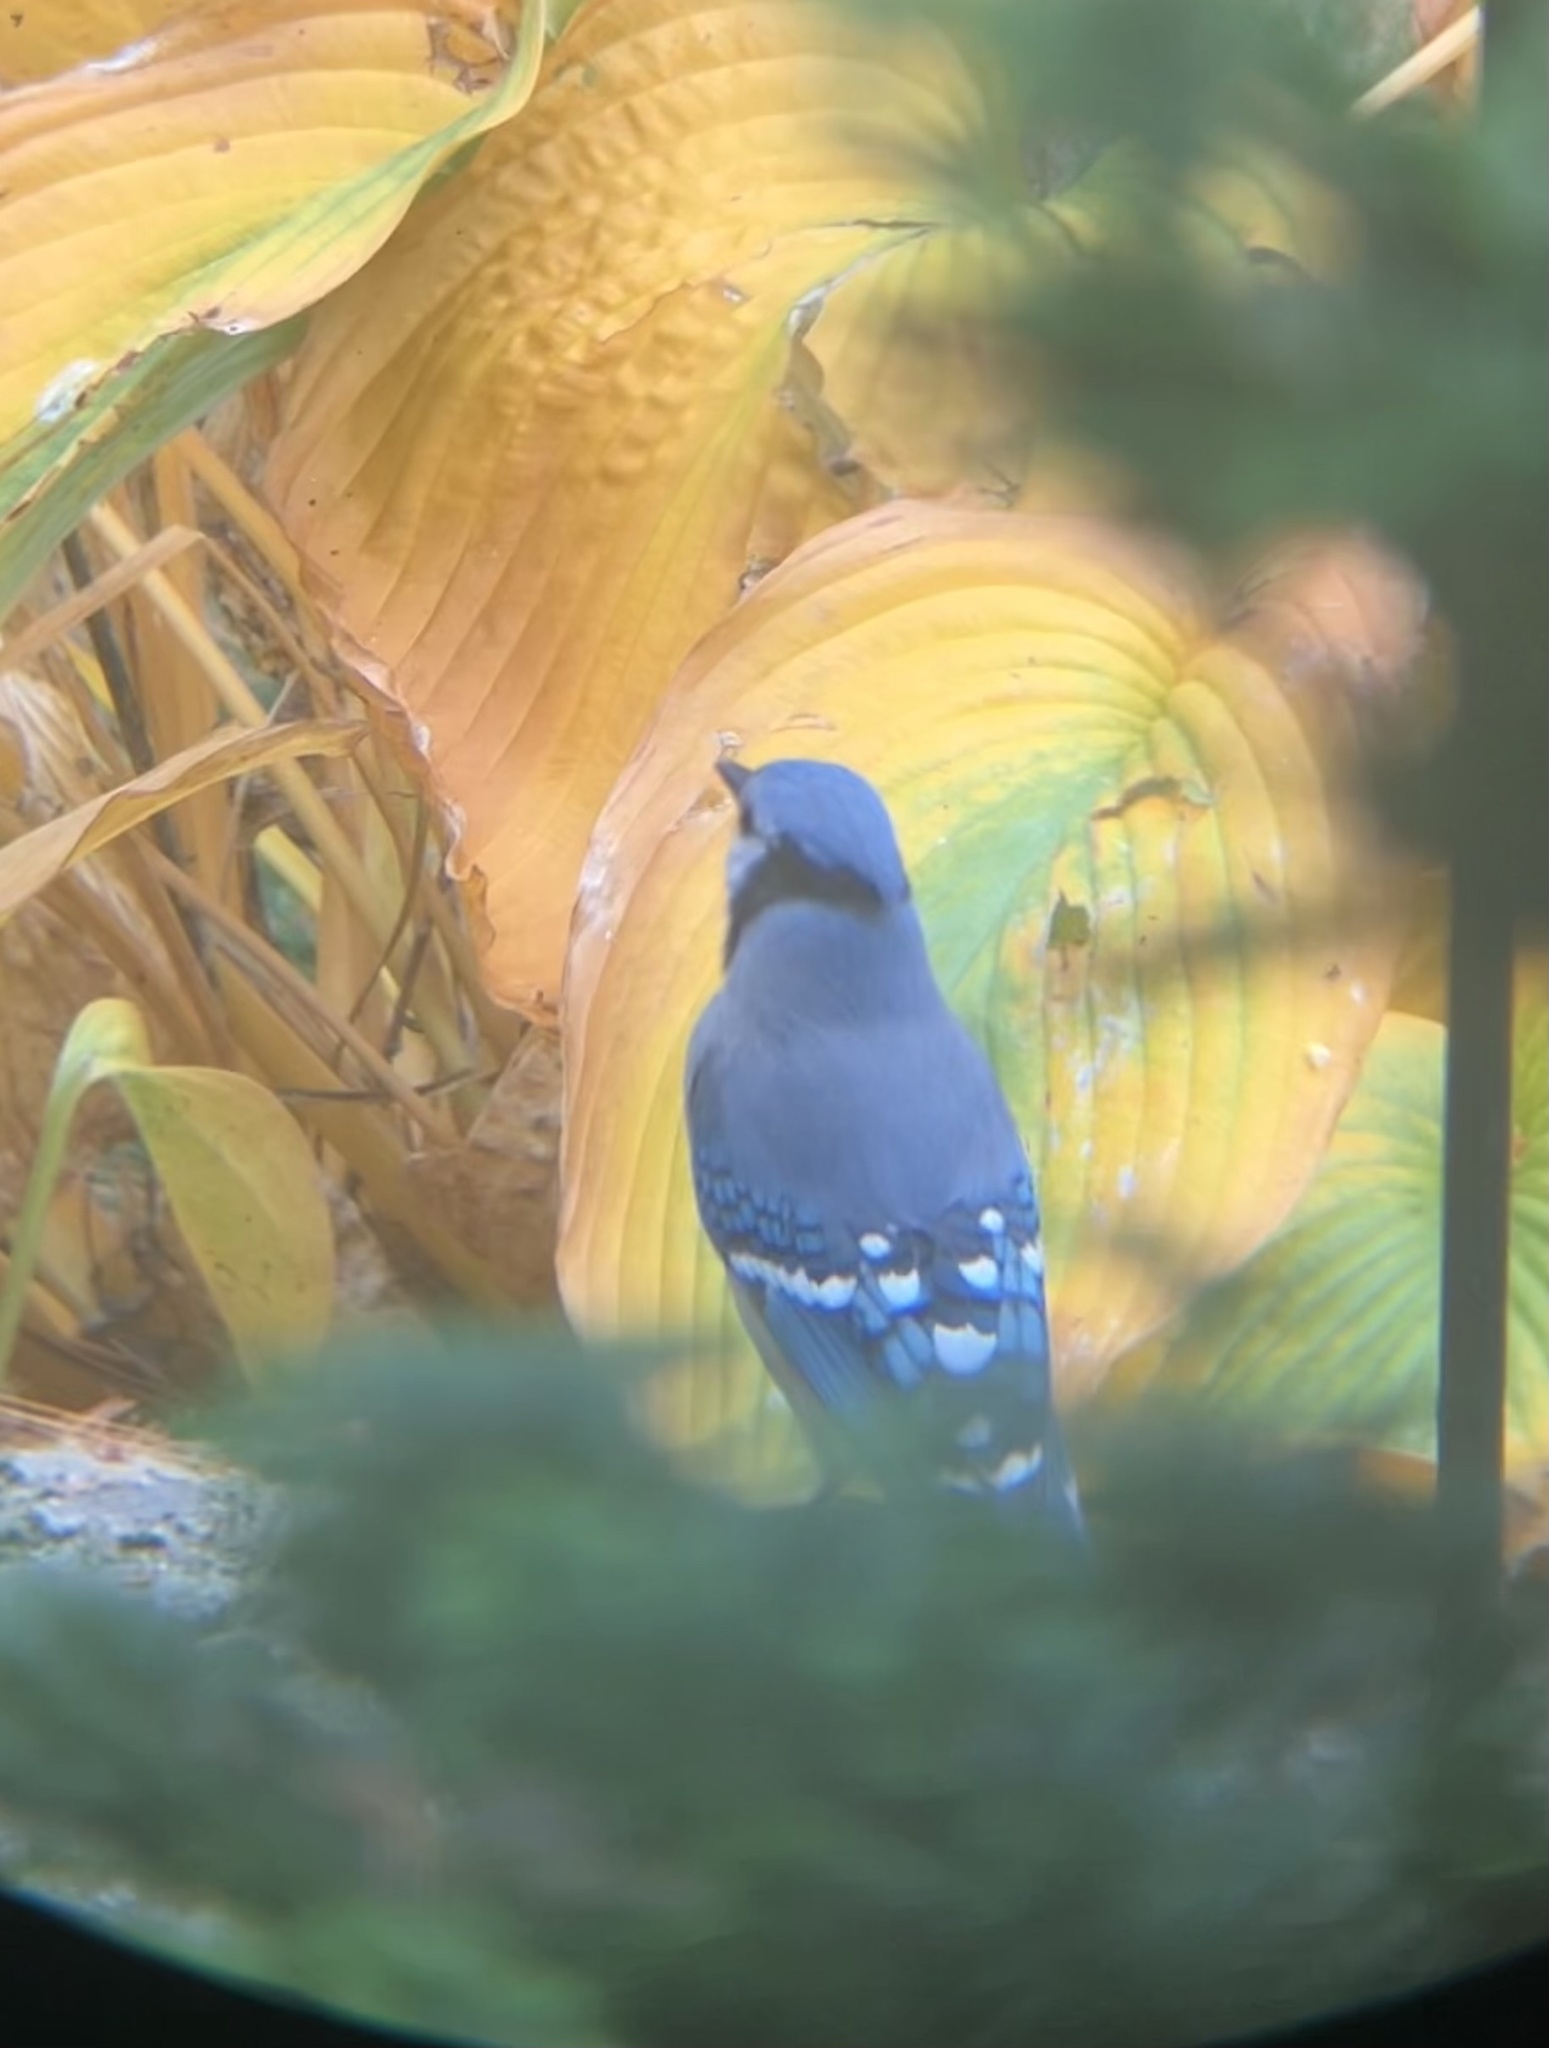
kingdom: Animalia
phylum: Chordata
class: Aves
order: Passeriformes
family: Corvidae
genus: Cyanocitta
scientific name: Cyanocitta cristata
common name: Blue jay
